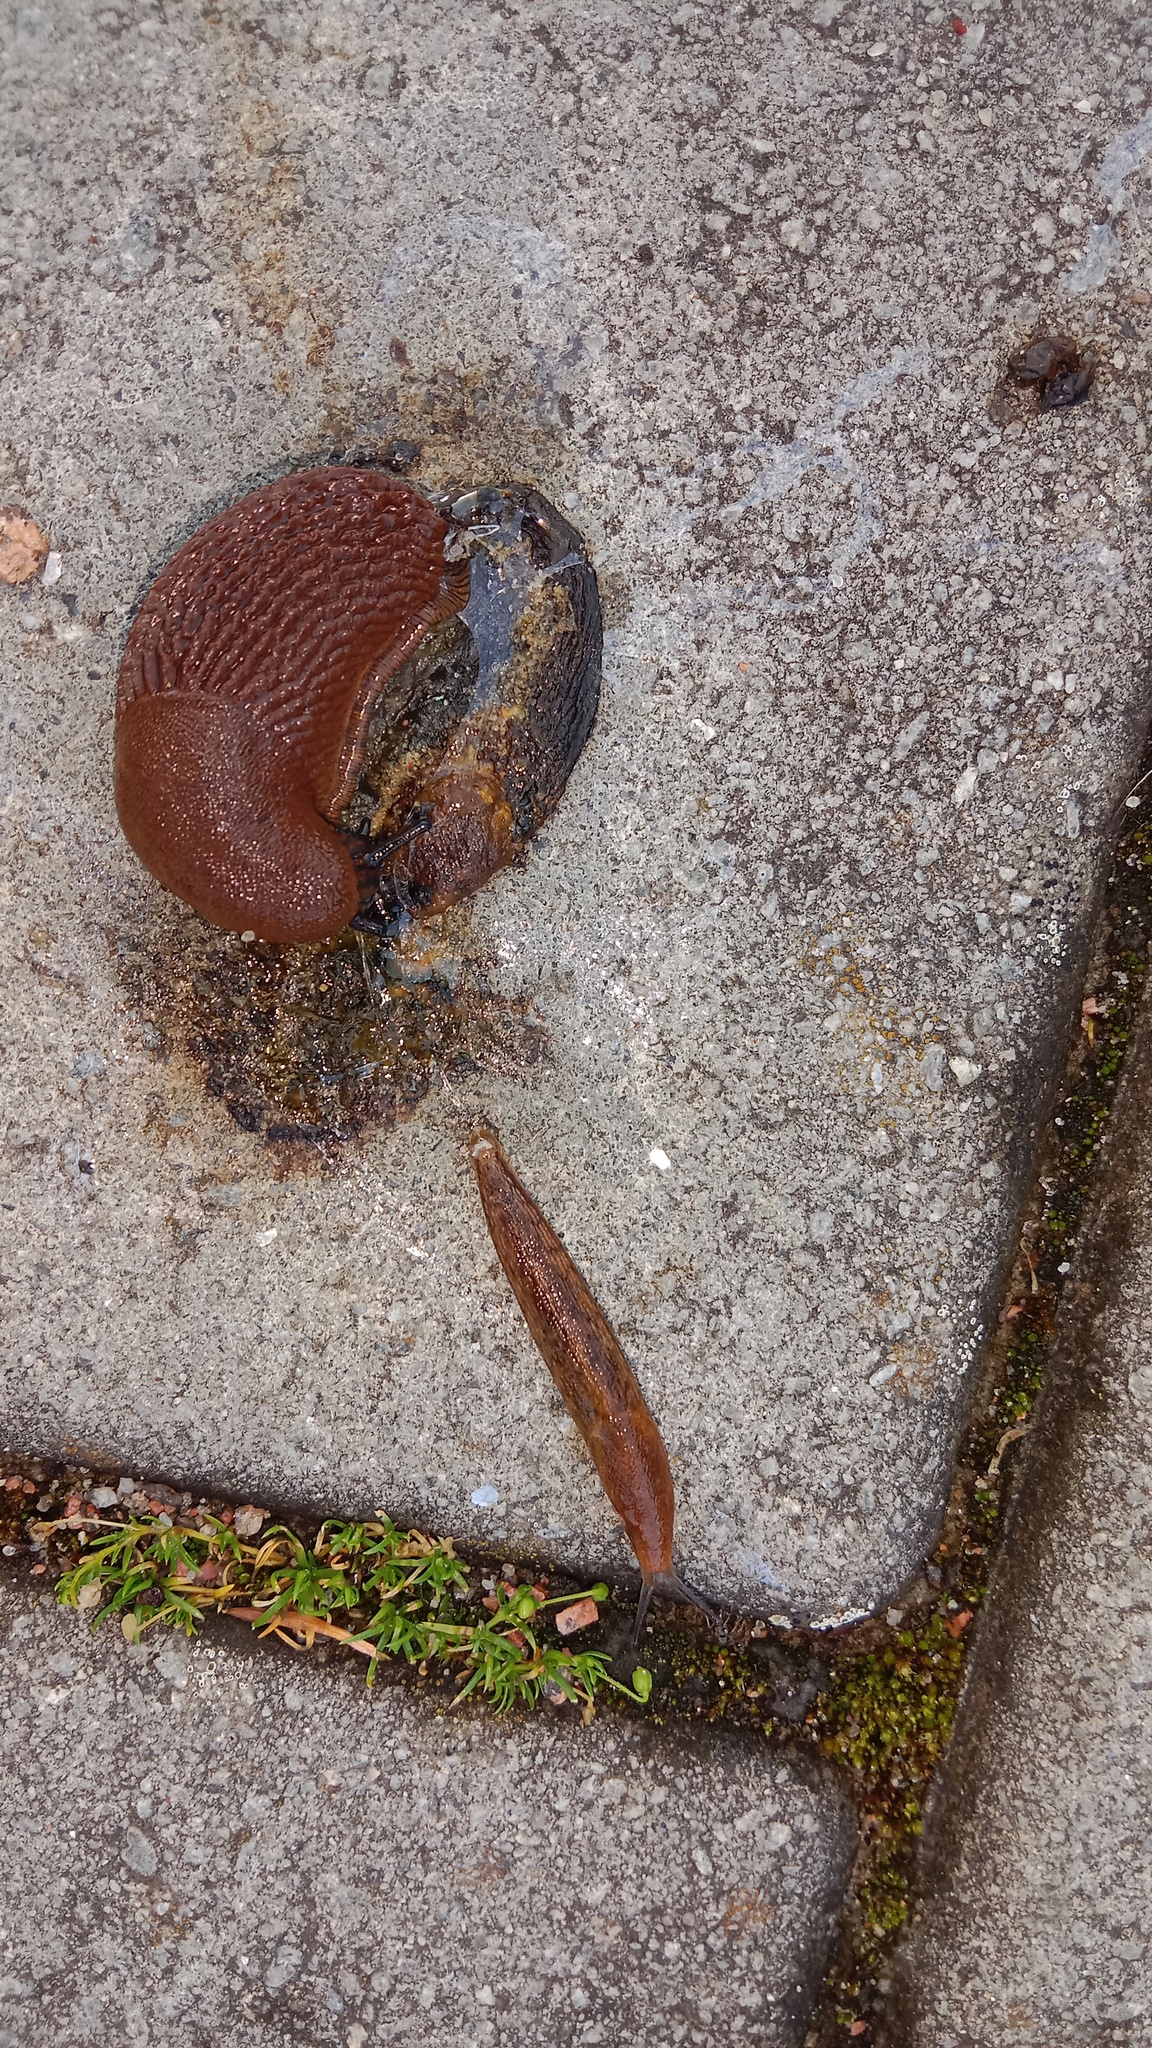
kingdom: Animalia
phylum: Mollusca
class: Gastropoda
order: Stylommatophora
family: Arionidae
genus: Arion
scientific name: Arion vulgaris
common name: Lusitanian slug
